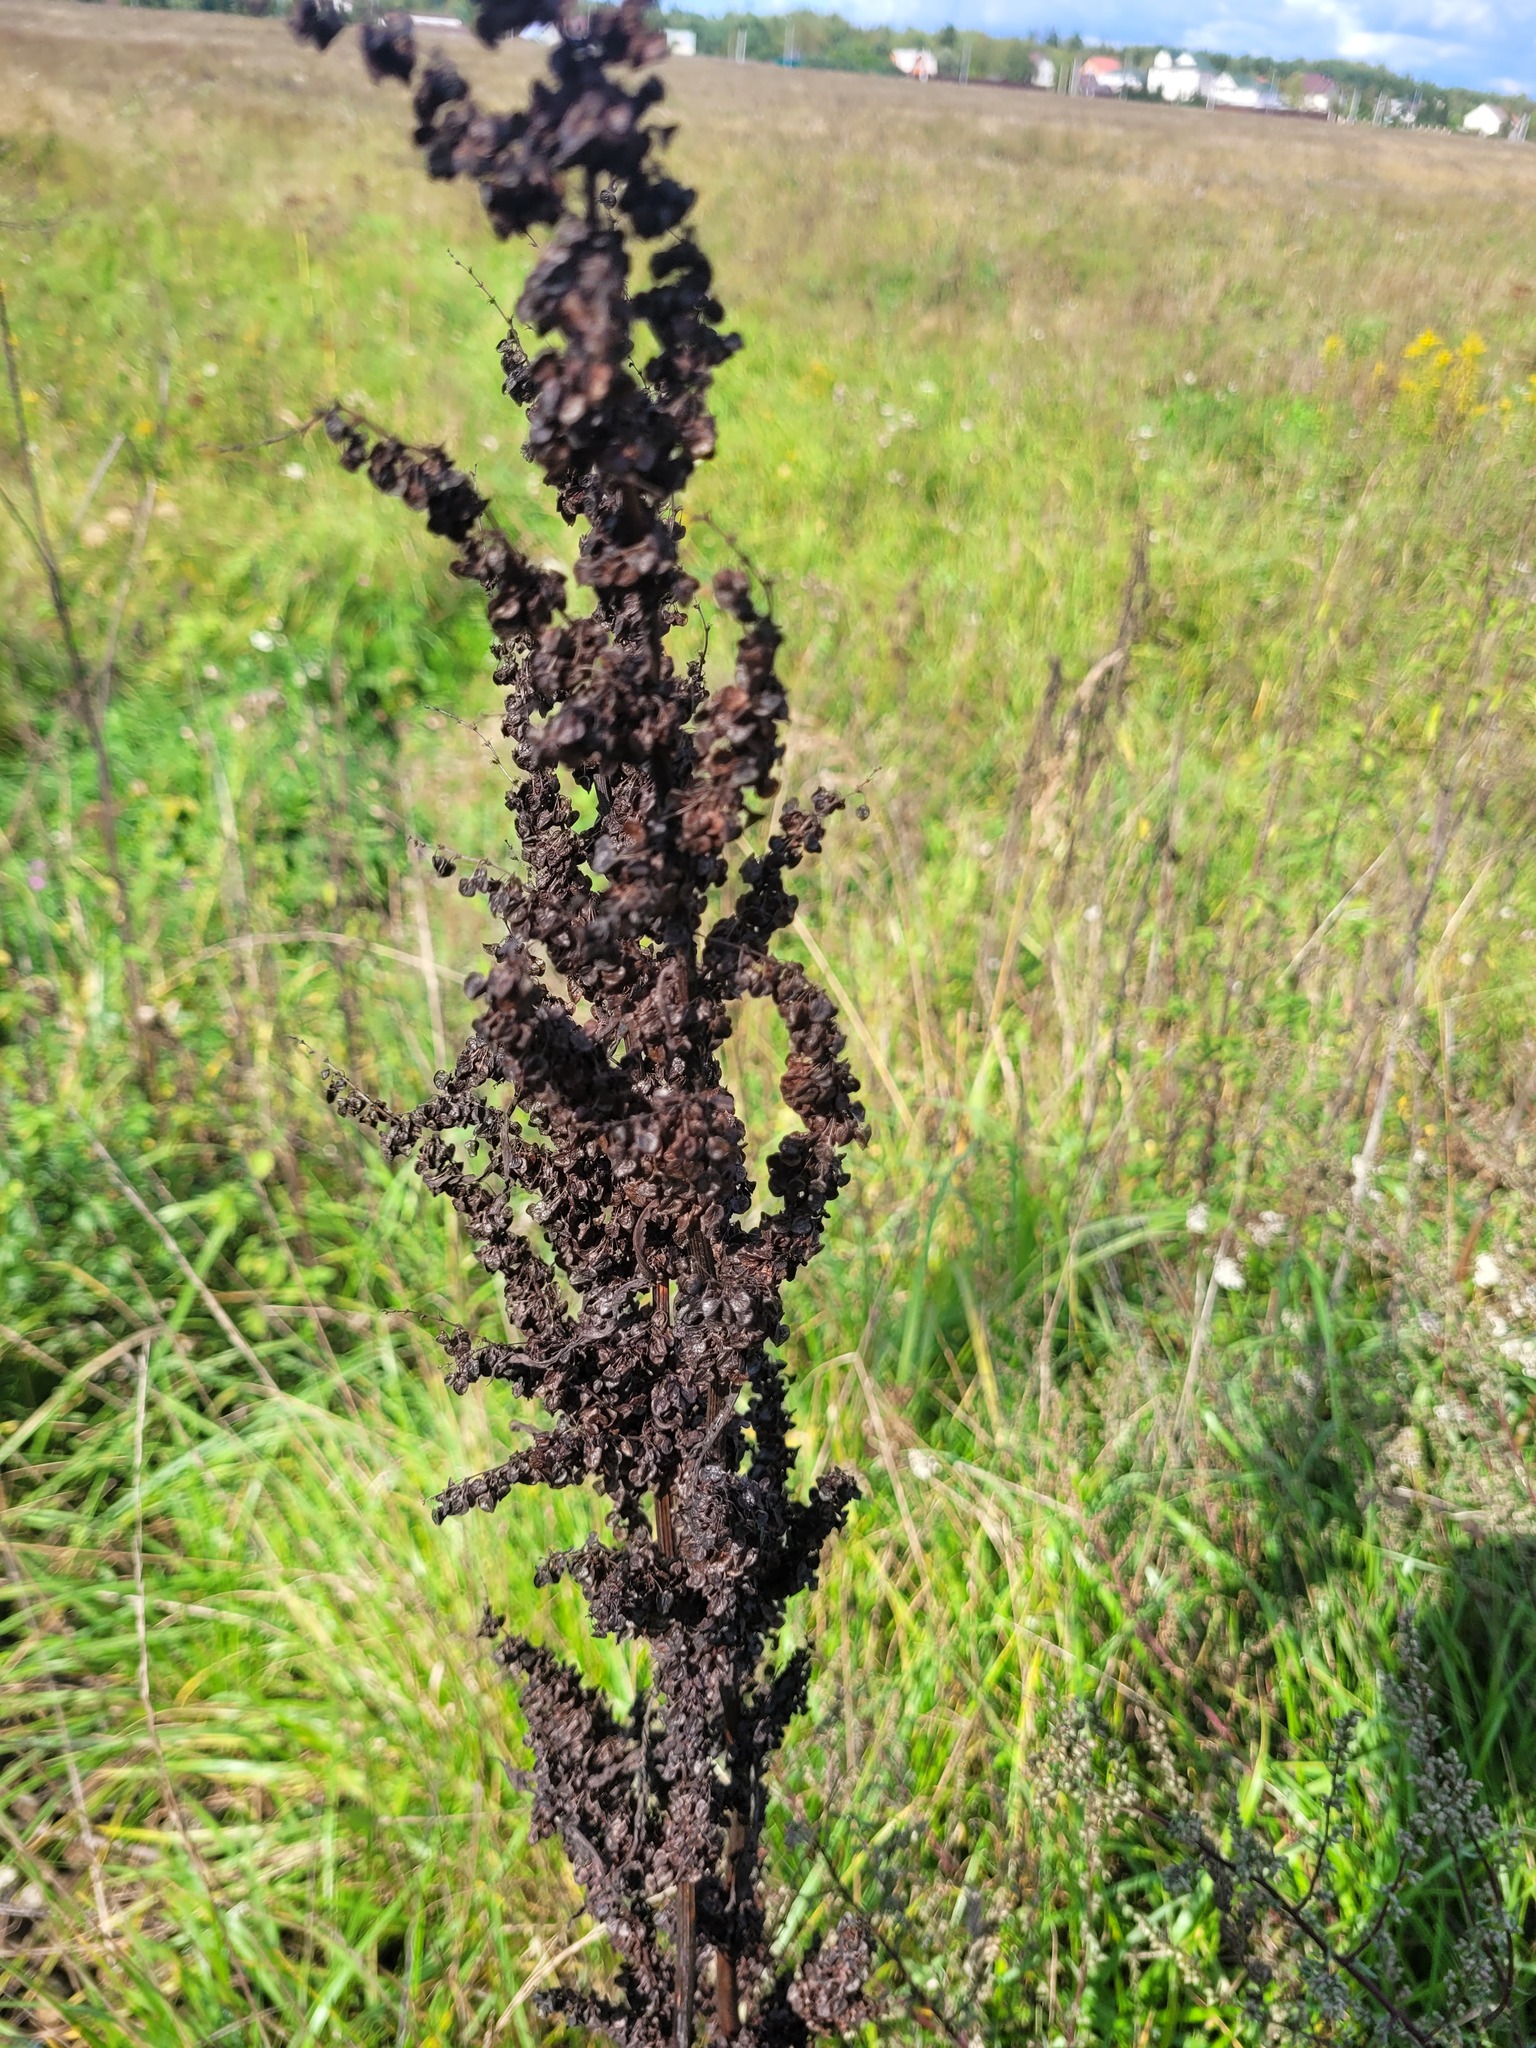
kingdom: Plantae
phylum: Tracheophyta
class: Magnoliopsida
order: Caryophyllales
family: Polygonaceae
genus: Rumex
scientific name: Rumex pseudonatronatus
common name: Field dock
